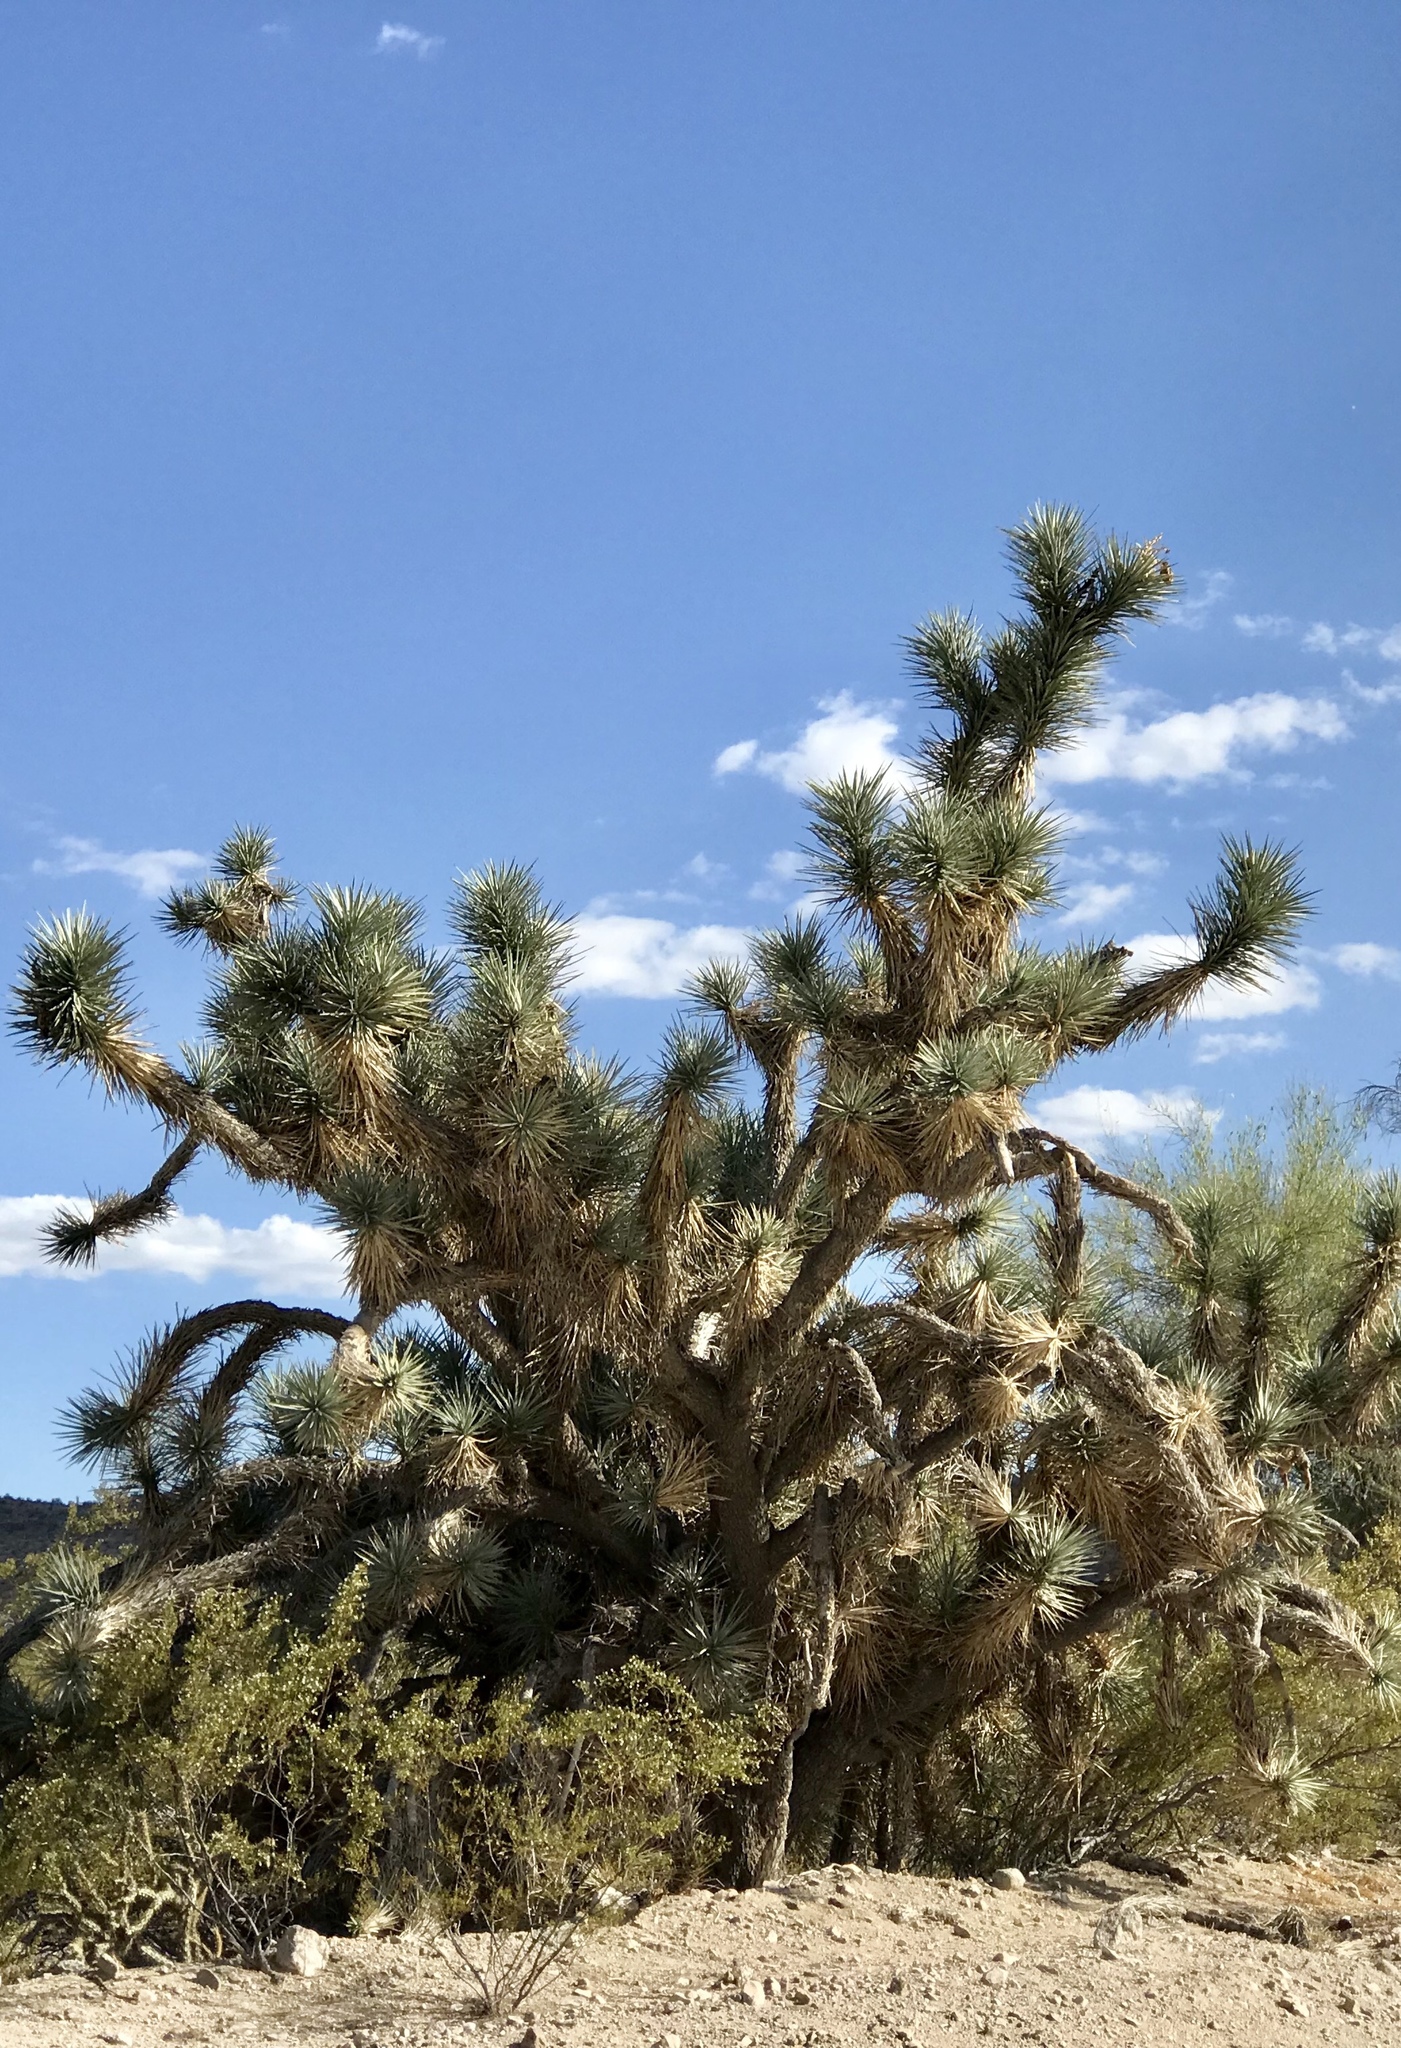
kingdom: Plantae
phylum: Tracheophyta
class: Liliopsida
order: Asparagales
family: Asparagaceae
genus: Yucca
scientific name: Yucca brevifolia
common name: Joshua tree
